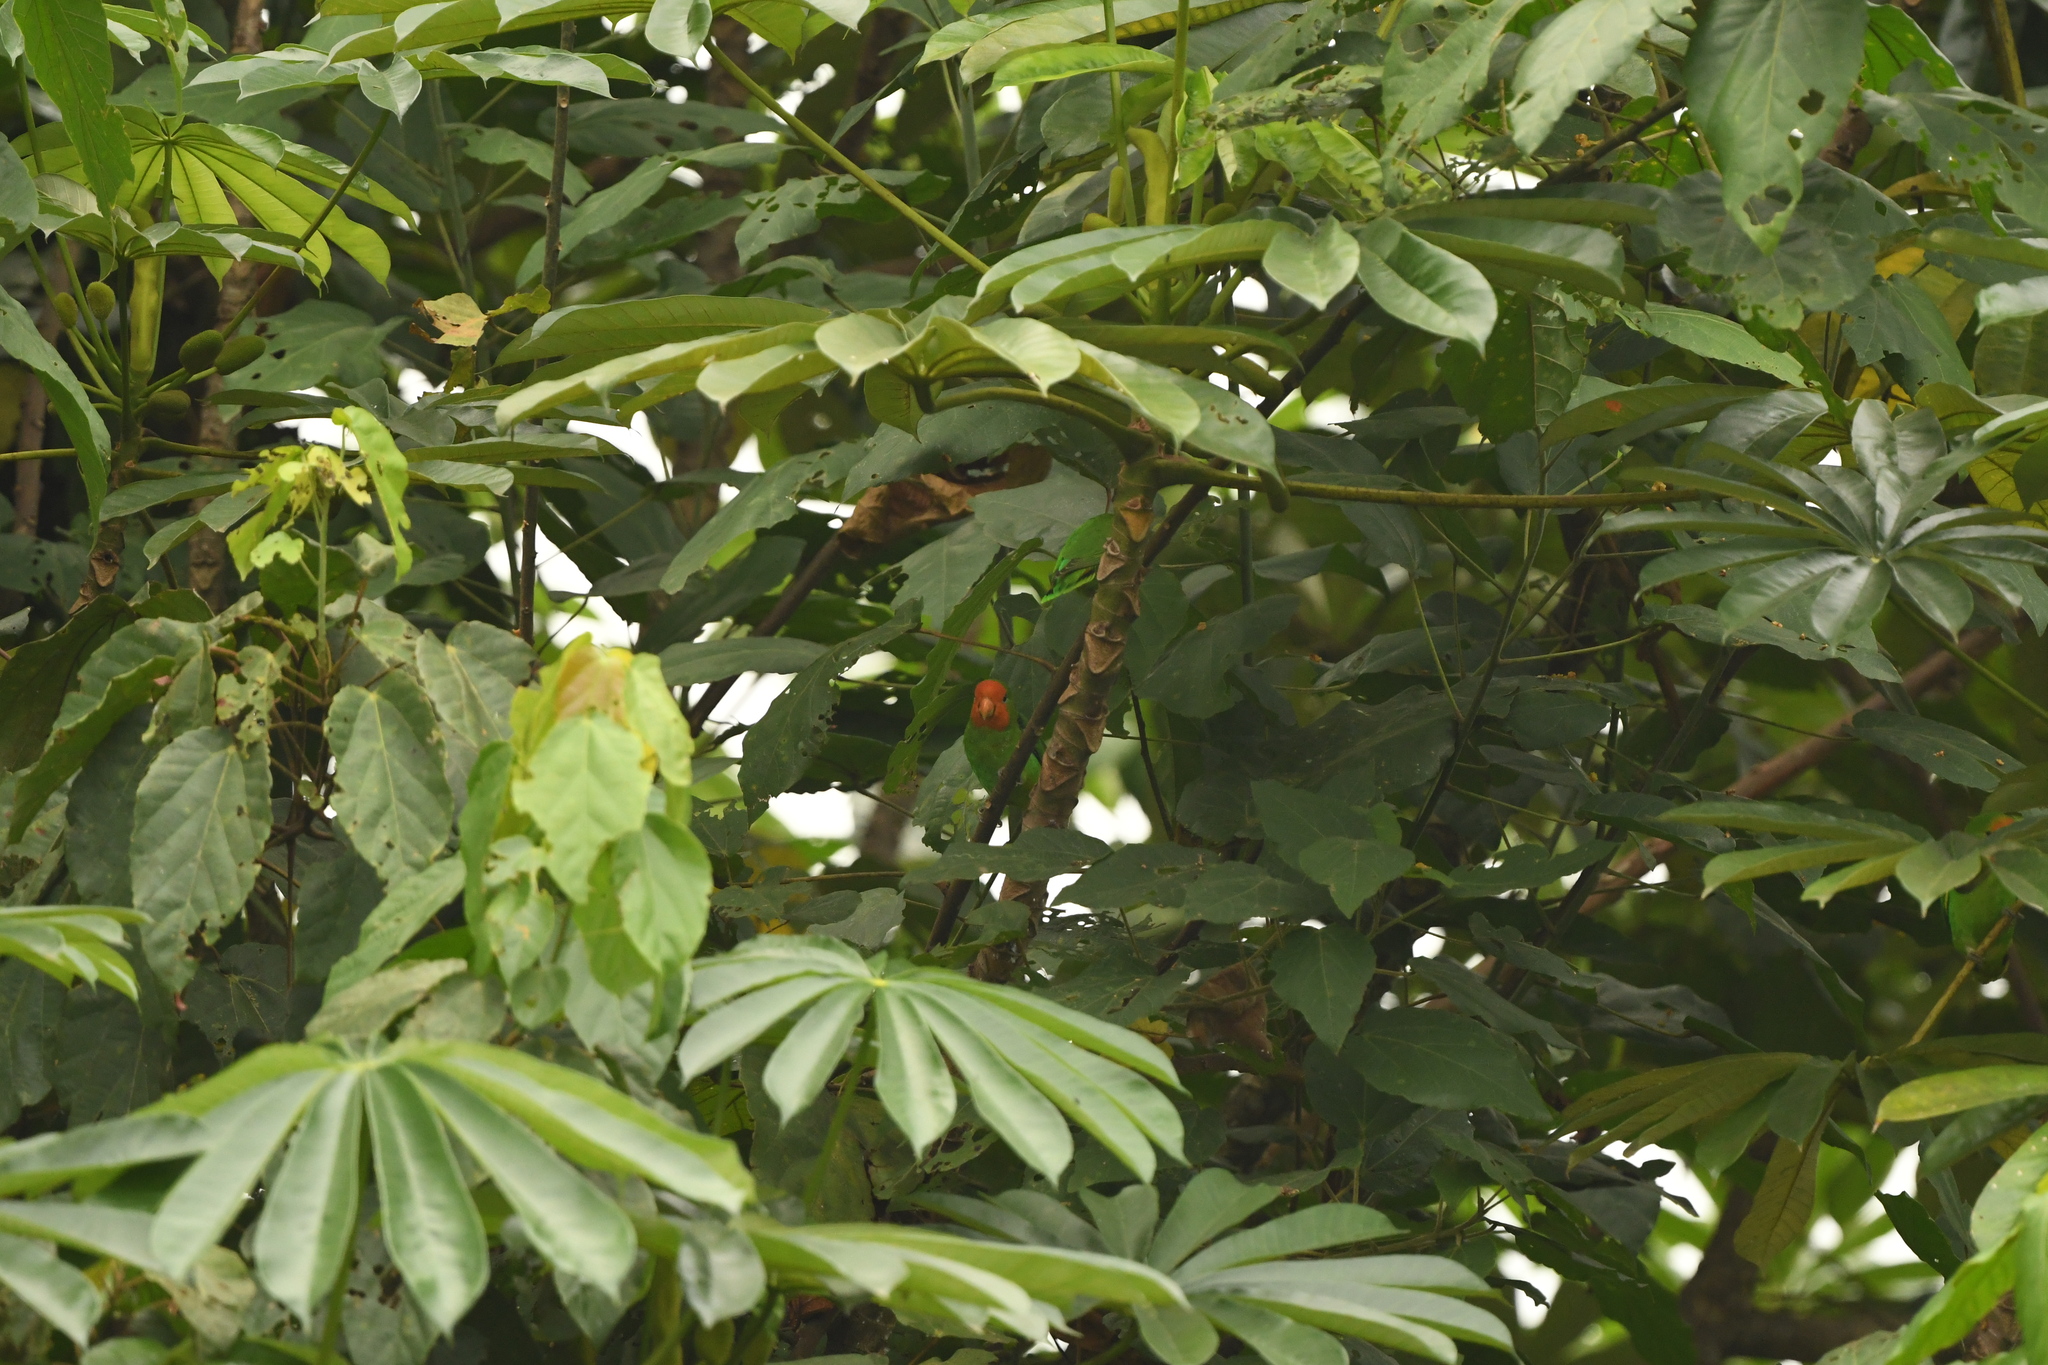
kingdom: Animalia
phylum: Chordata
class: Aves
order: Psittaciformes
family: Psittacidae
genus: Agapornis
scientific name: Agapornis pullarius
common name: Red-headed lovebird
